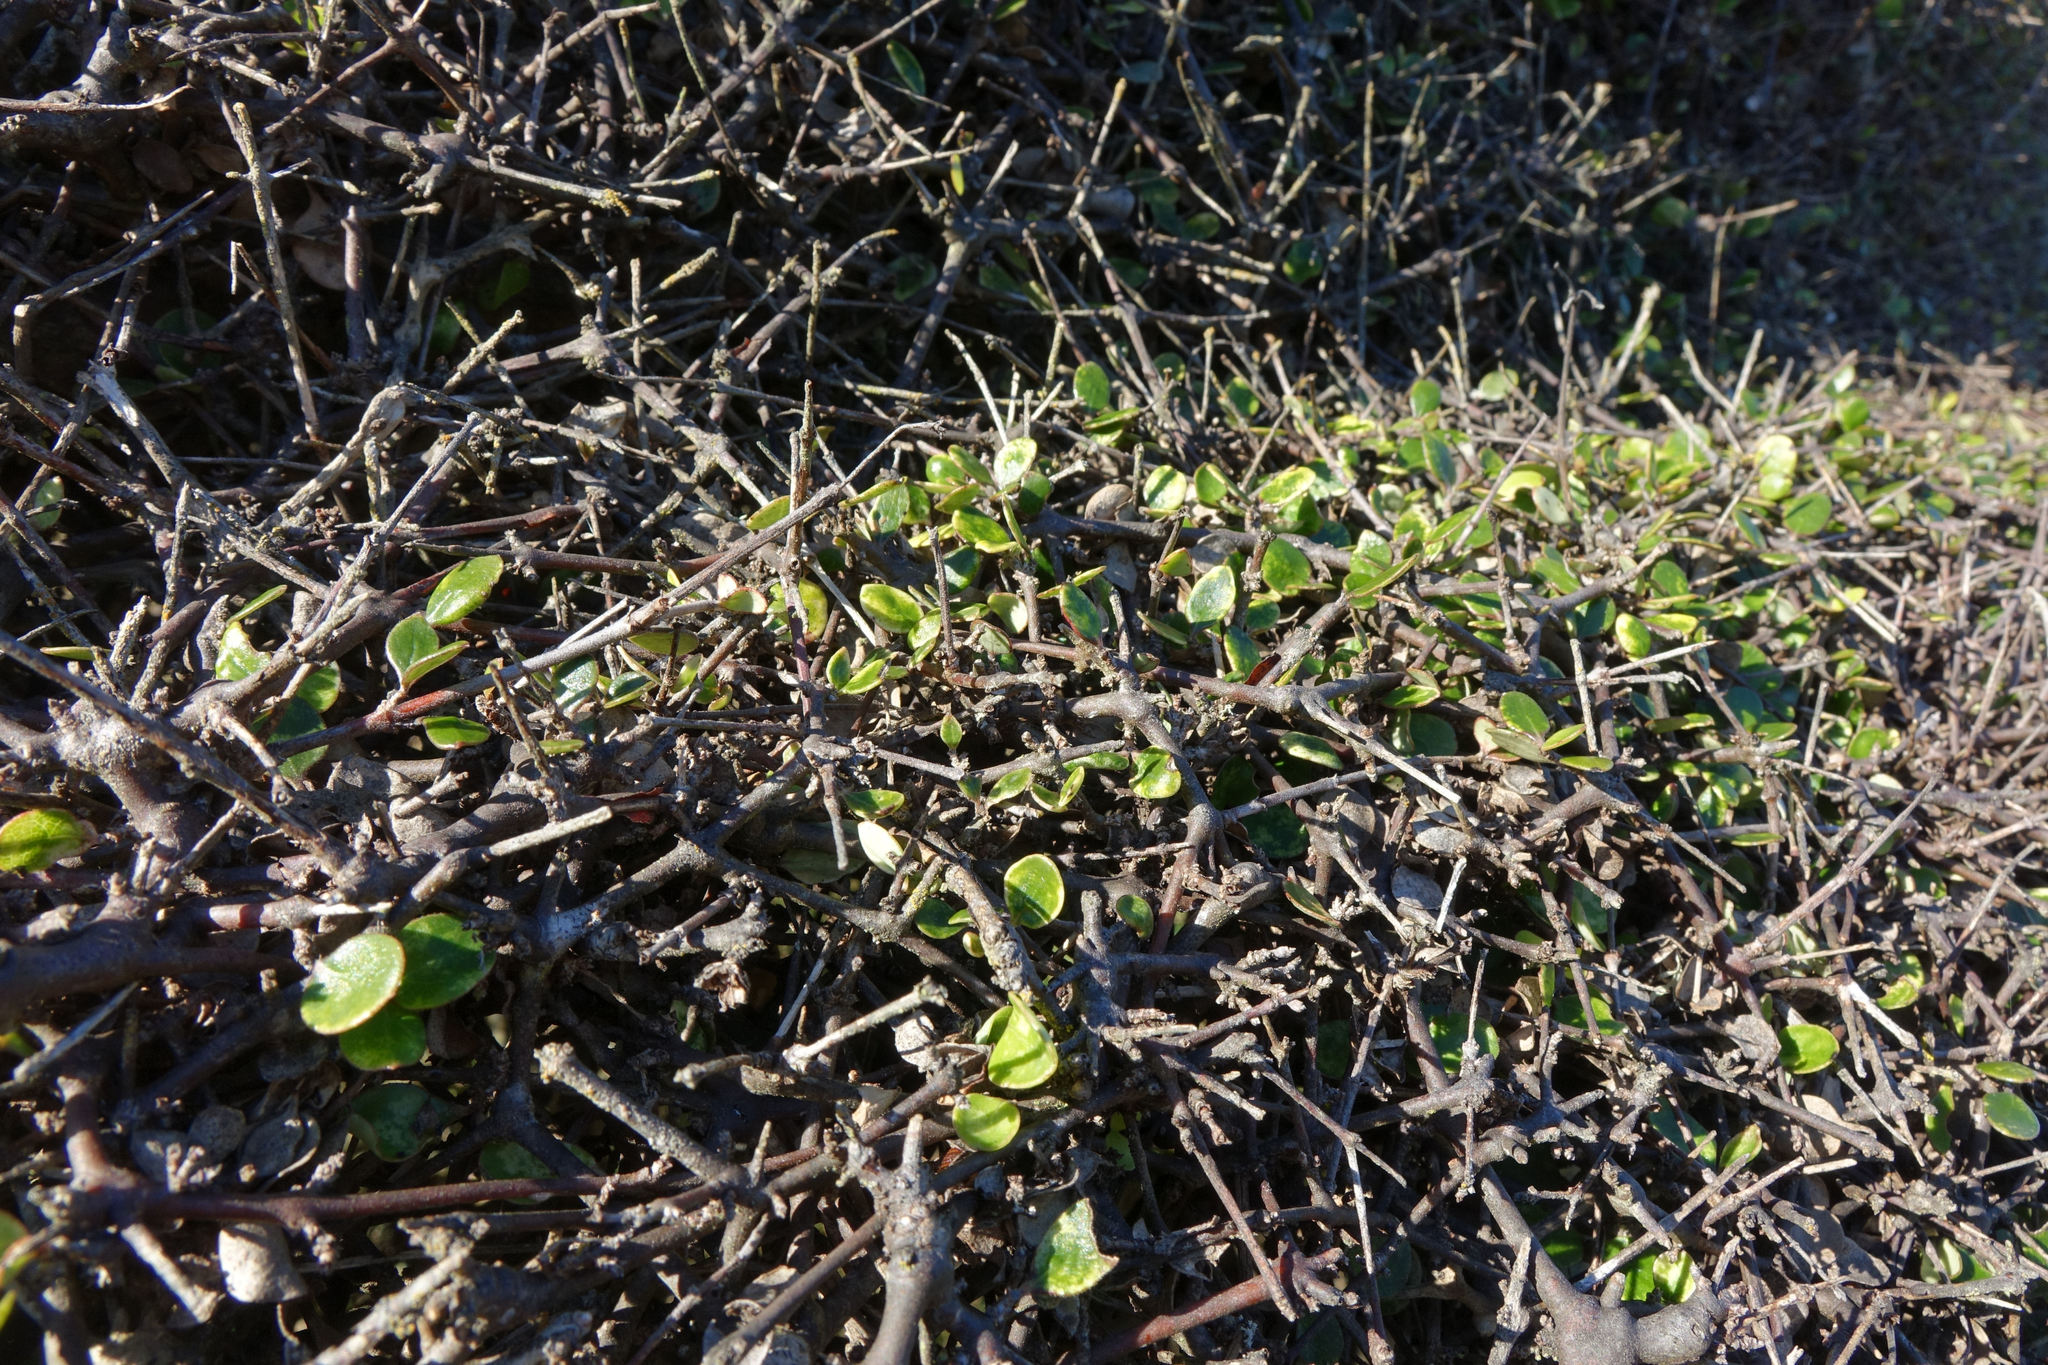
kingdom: Plantae
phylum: Tracheophyta
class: Magnoliopsida
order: Gentianales
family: Rubiaceae
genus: Coprosma
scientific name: Coprosma crassifolia
